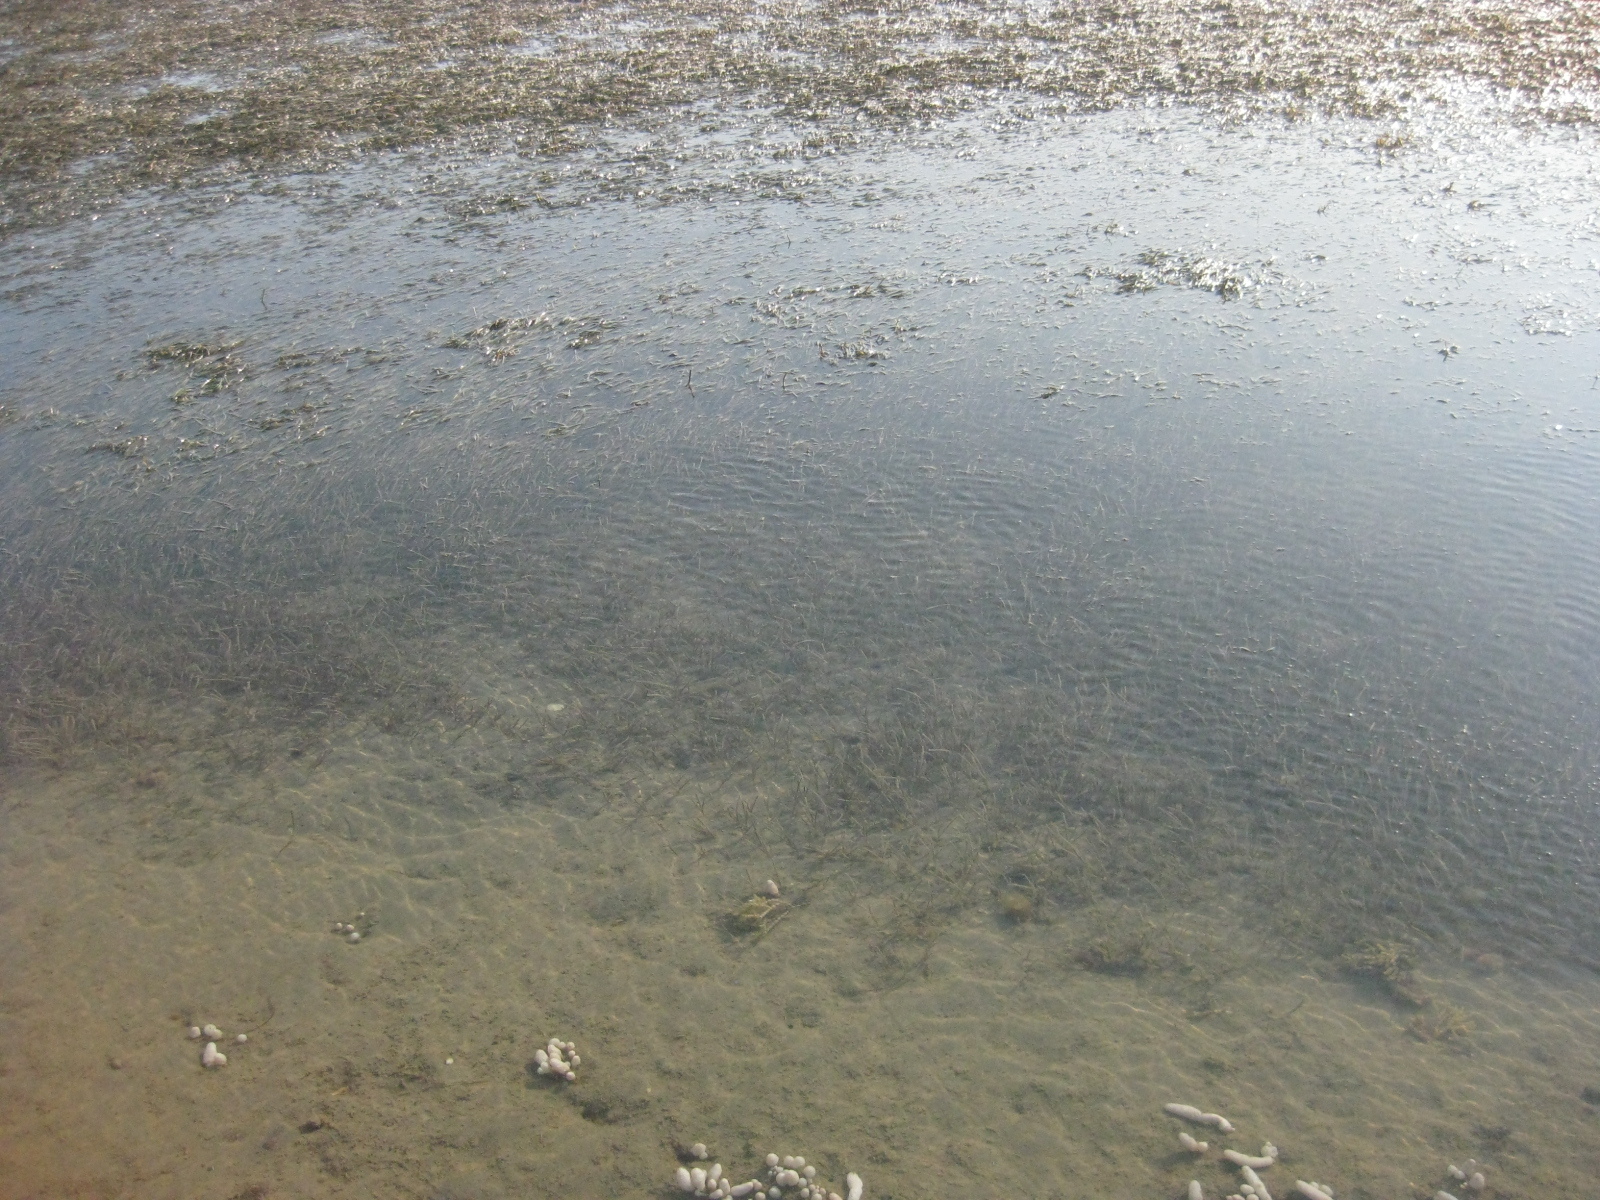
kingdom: Plantae
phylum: Tracheophyta
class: Liliopsida
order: Alismatales
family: Zosteraceae
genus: Zostera
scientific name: Zostera novazelandica
